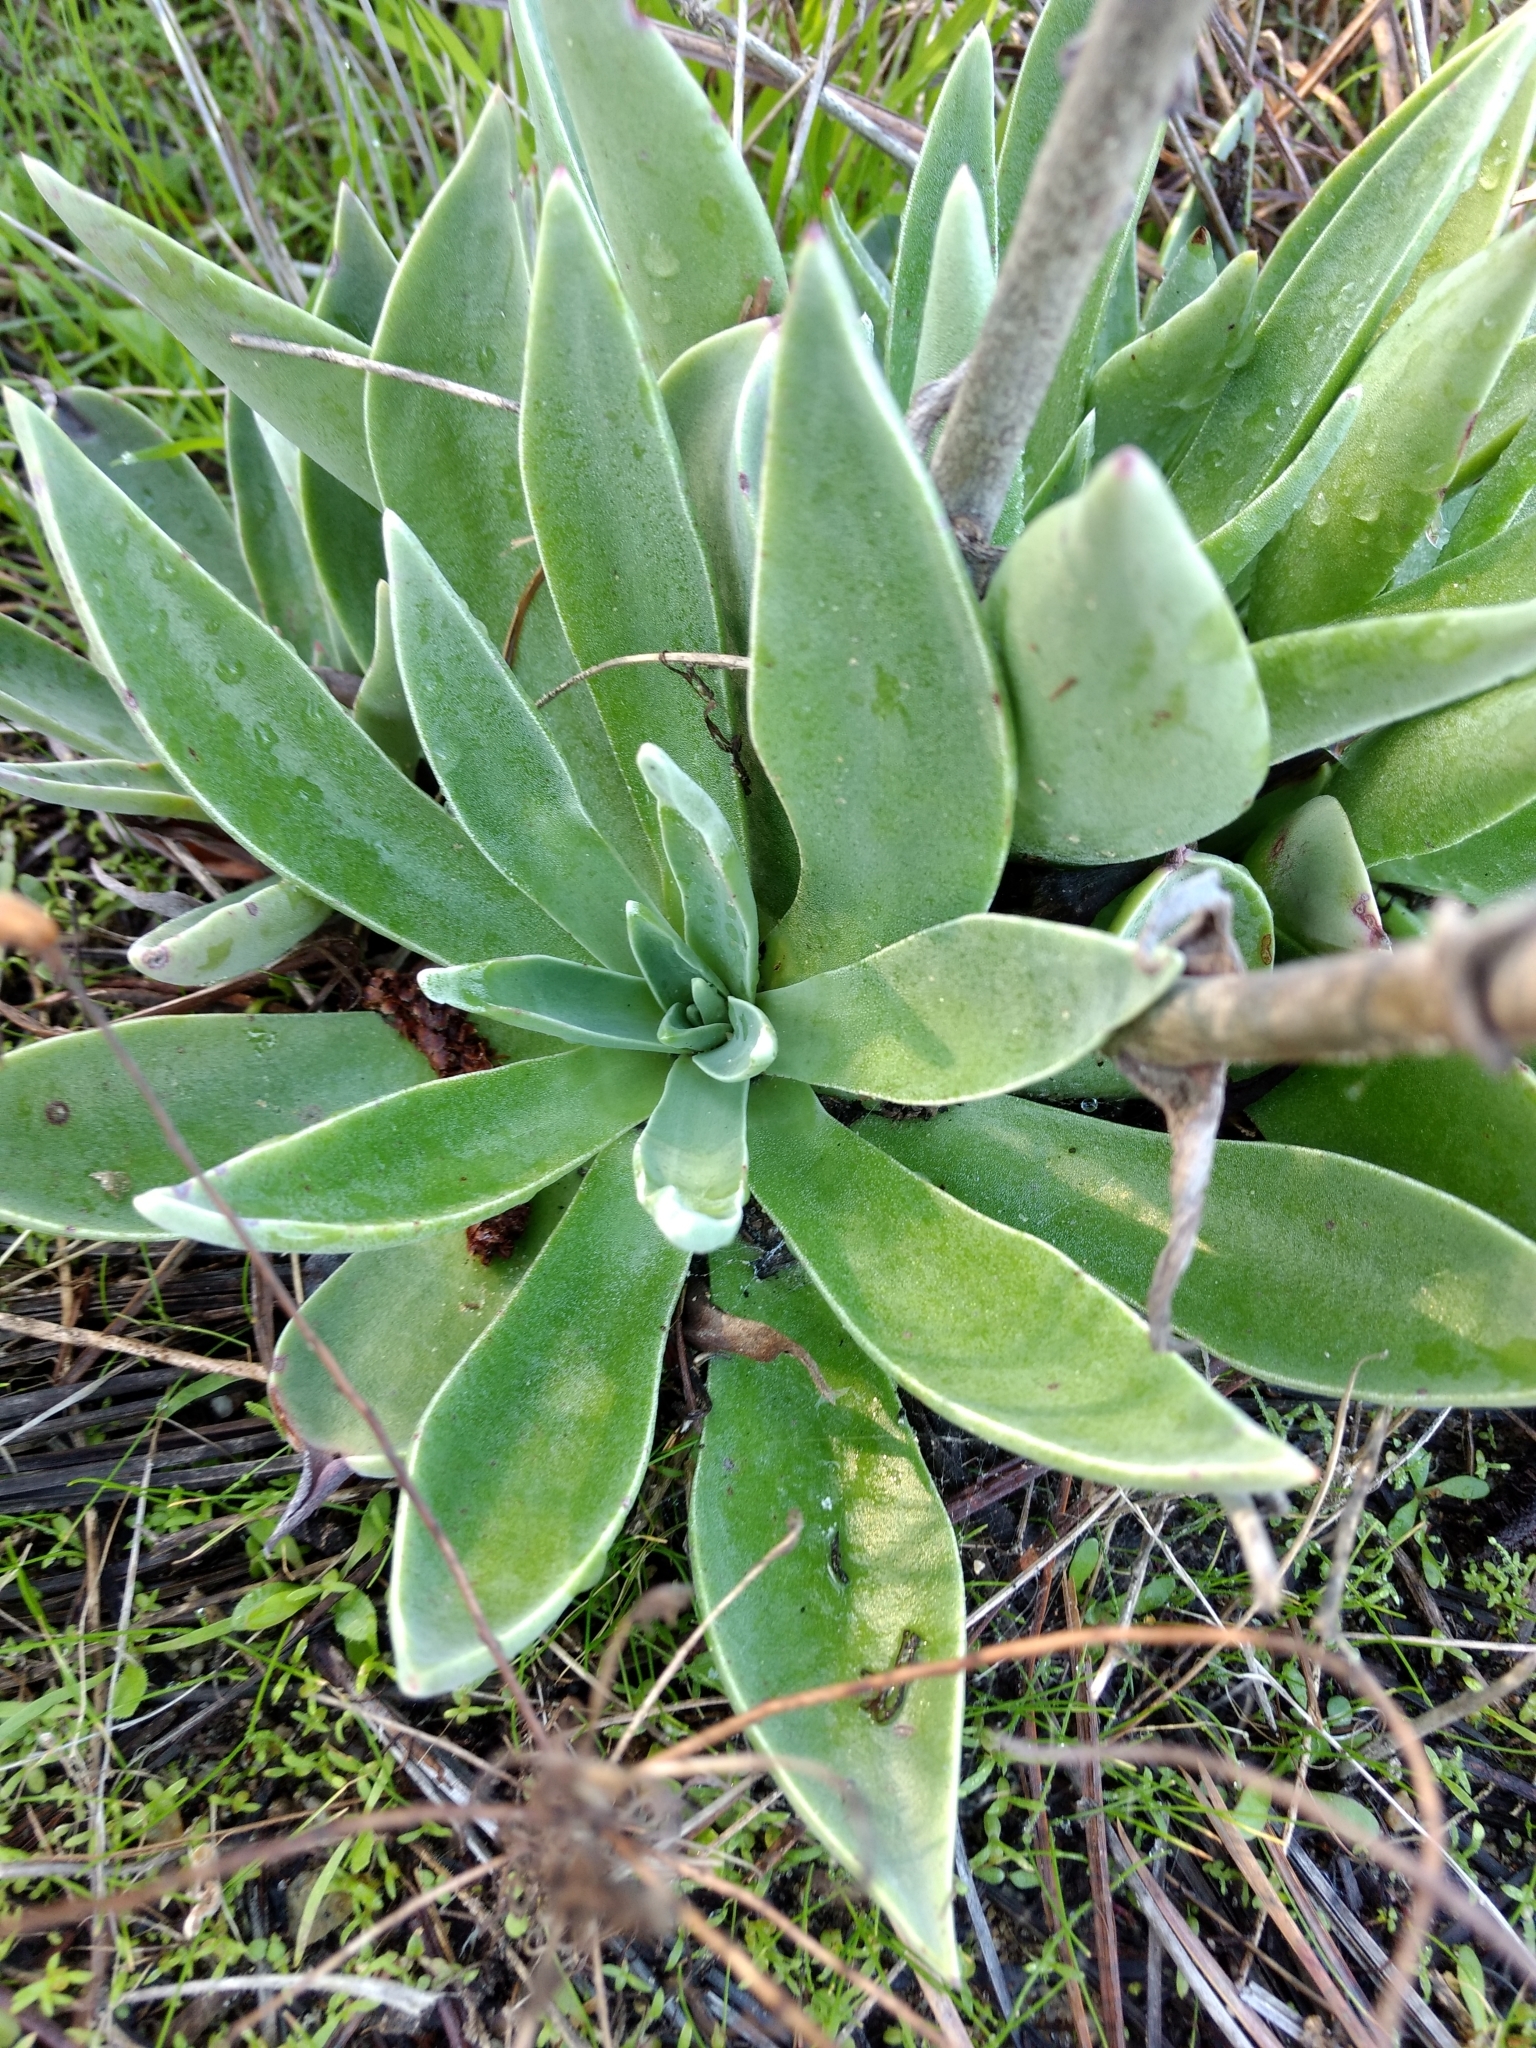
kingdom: Plantae
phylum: Tracheophyta
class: Magnoliopsida
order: Saxifragales
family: Crassulaceae
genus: Dudleya
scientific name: Dudleya lanceolata
